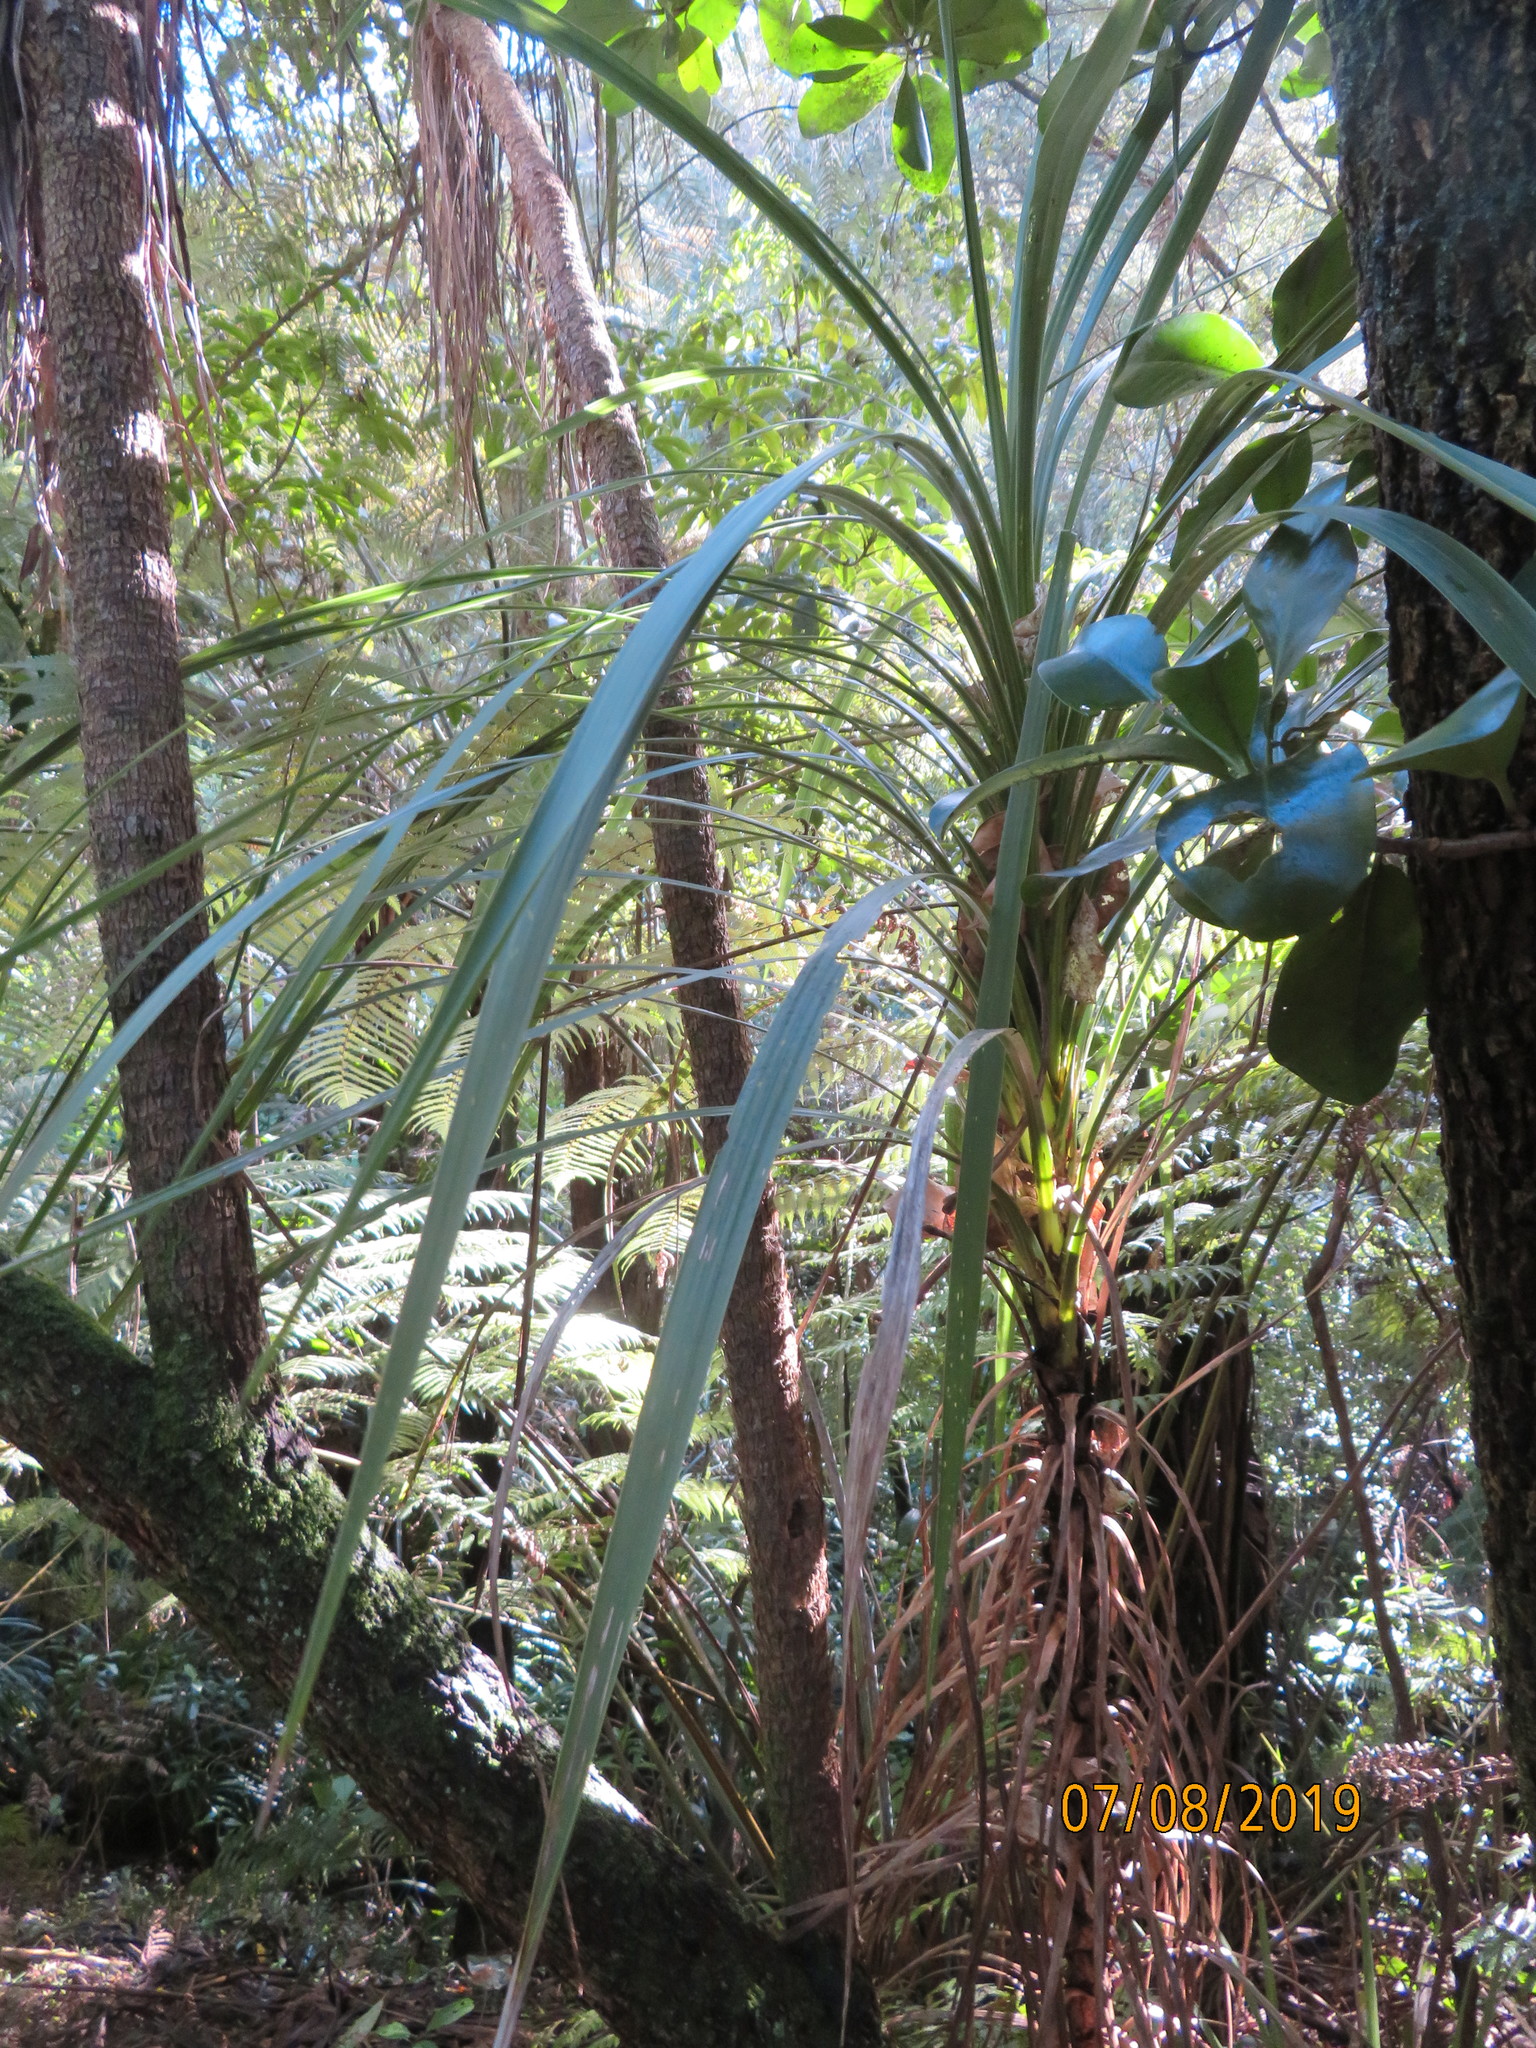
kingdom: Plantae
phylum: Tracheophyta
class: Liliopsida
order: Asparagales
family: Asparagaceae
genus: Cordyline
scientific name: Cordyline australis
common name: Cabbage-palm
